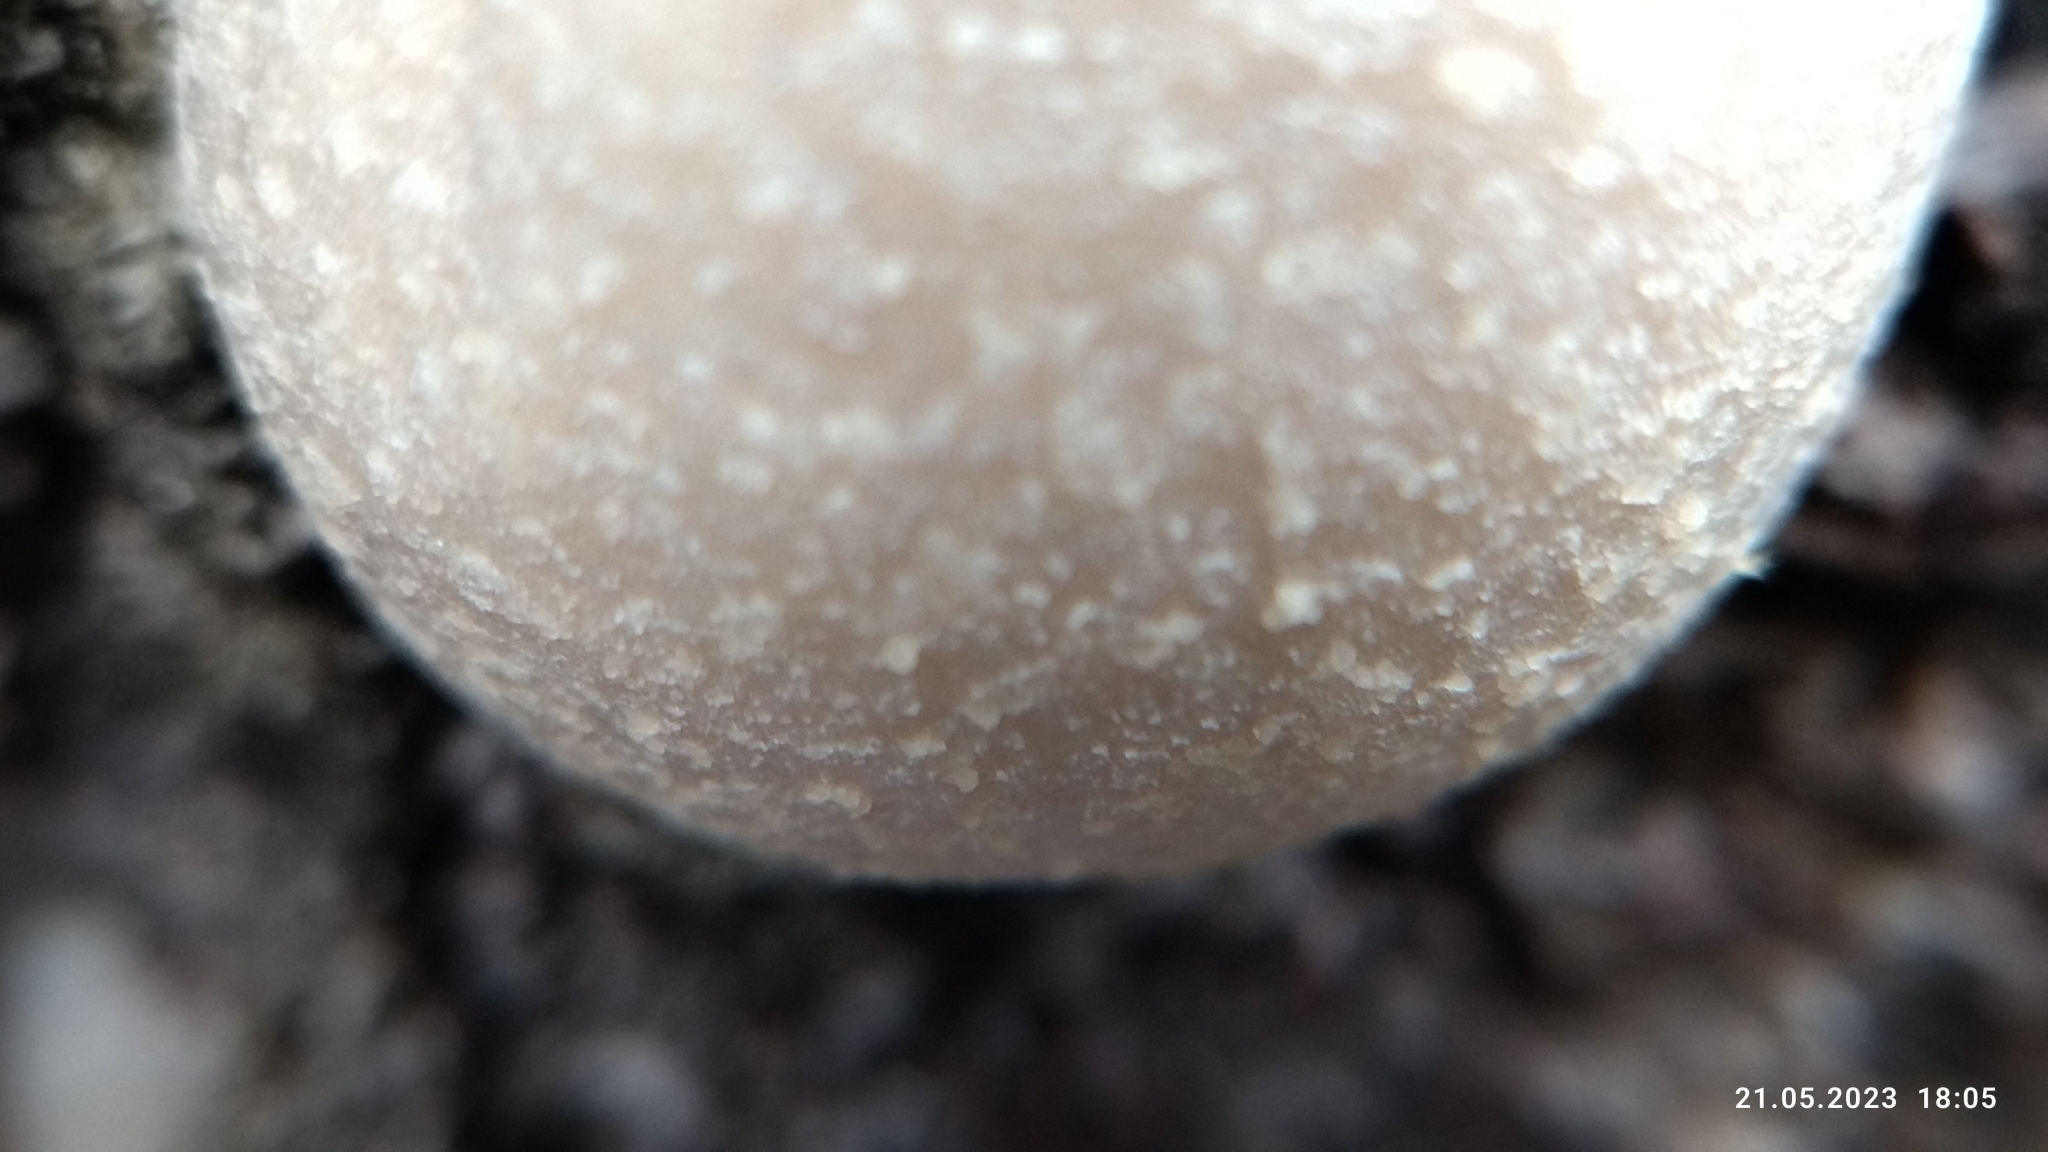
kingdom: Protozoa
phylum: Mycetozoa
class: Myxomycetes
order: Cribrariales
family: Tubiferaceae
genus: Reticularia
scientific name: Reticularia lycoperdon
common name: False puffball
